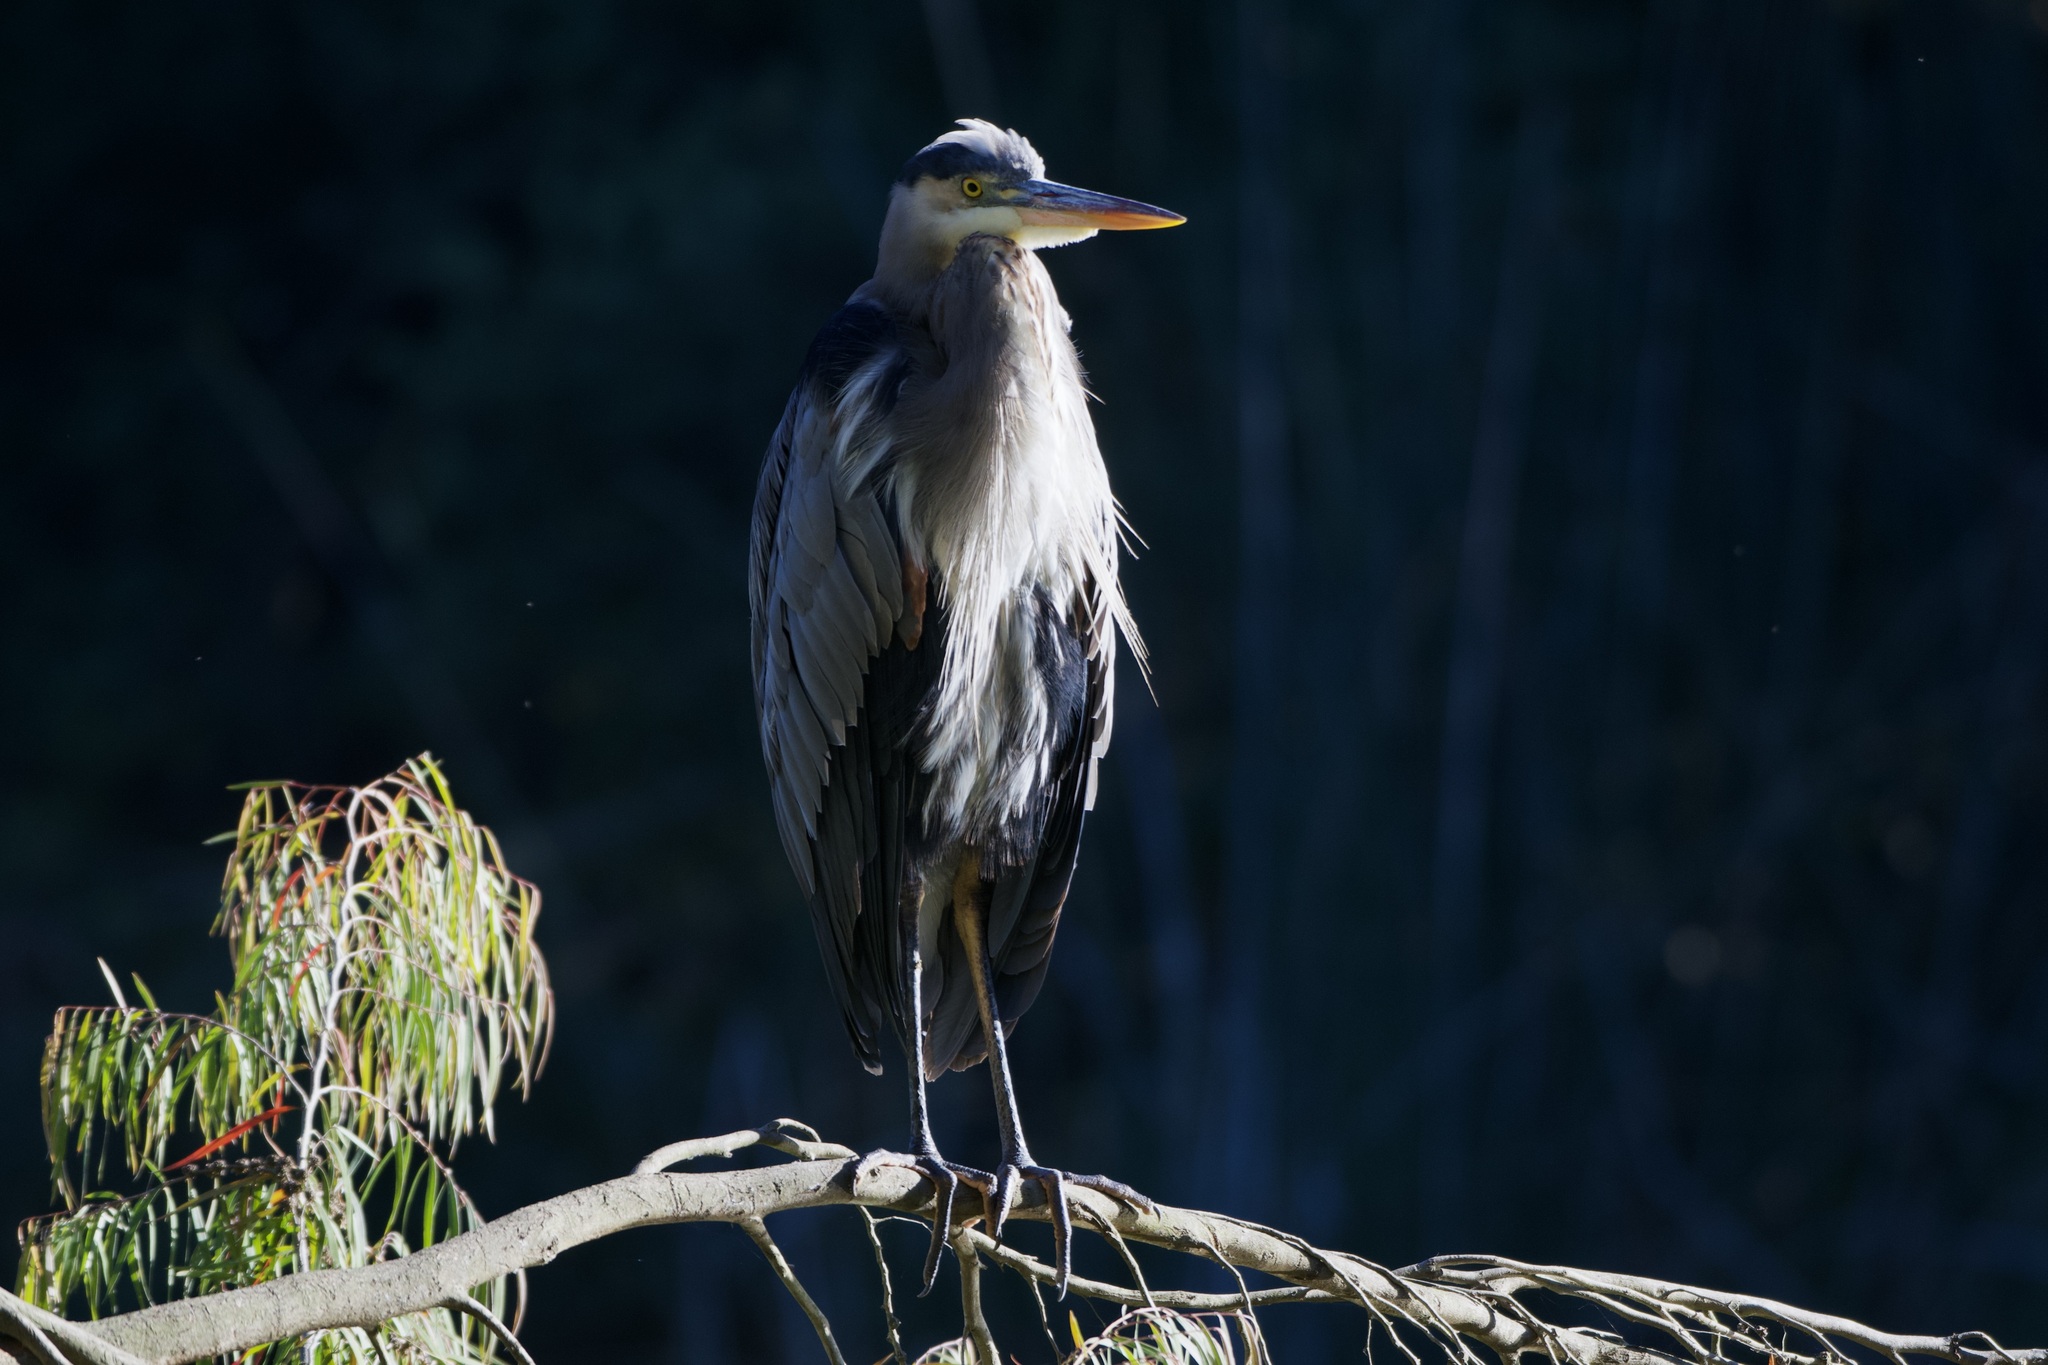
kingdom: Animalia
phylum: Chordata
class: Aves
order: Pelecaniformes
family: Ardeidae
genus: Ardea
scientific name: Ardea herodias
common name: Great blue heron
